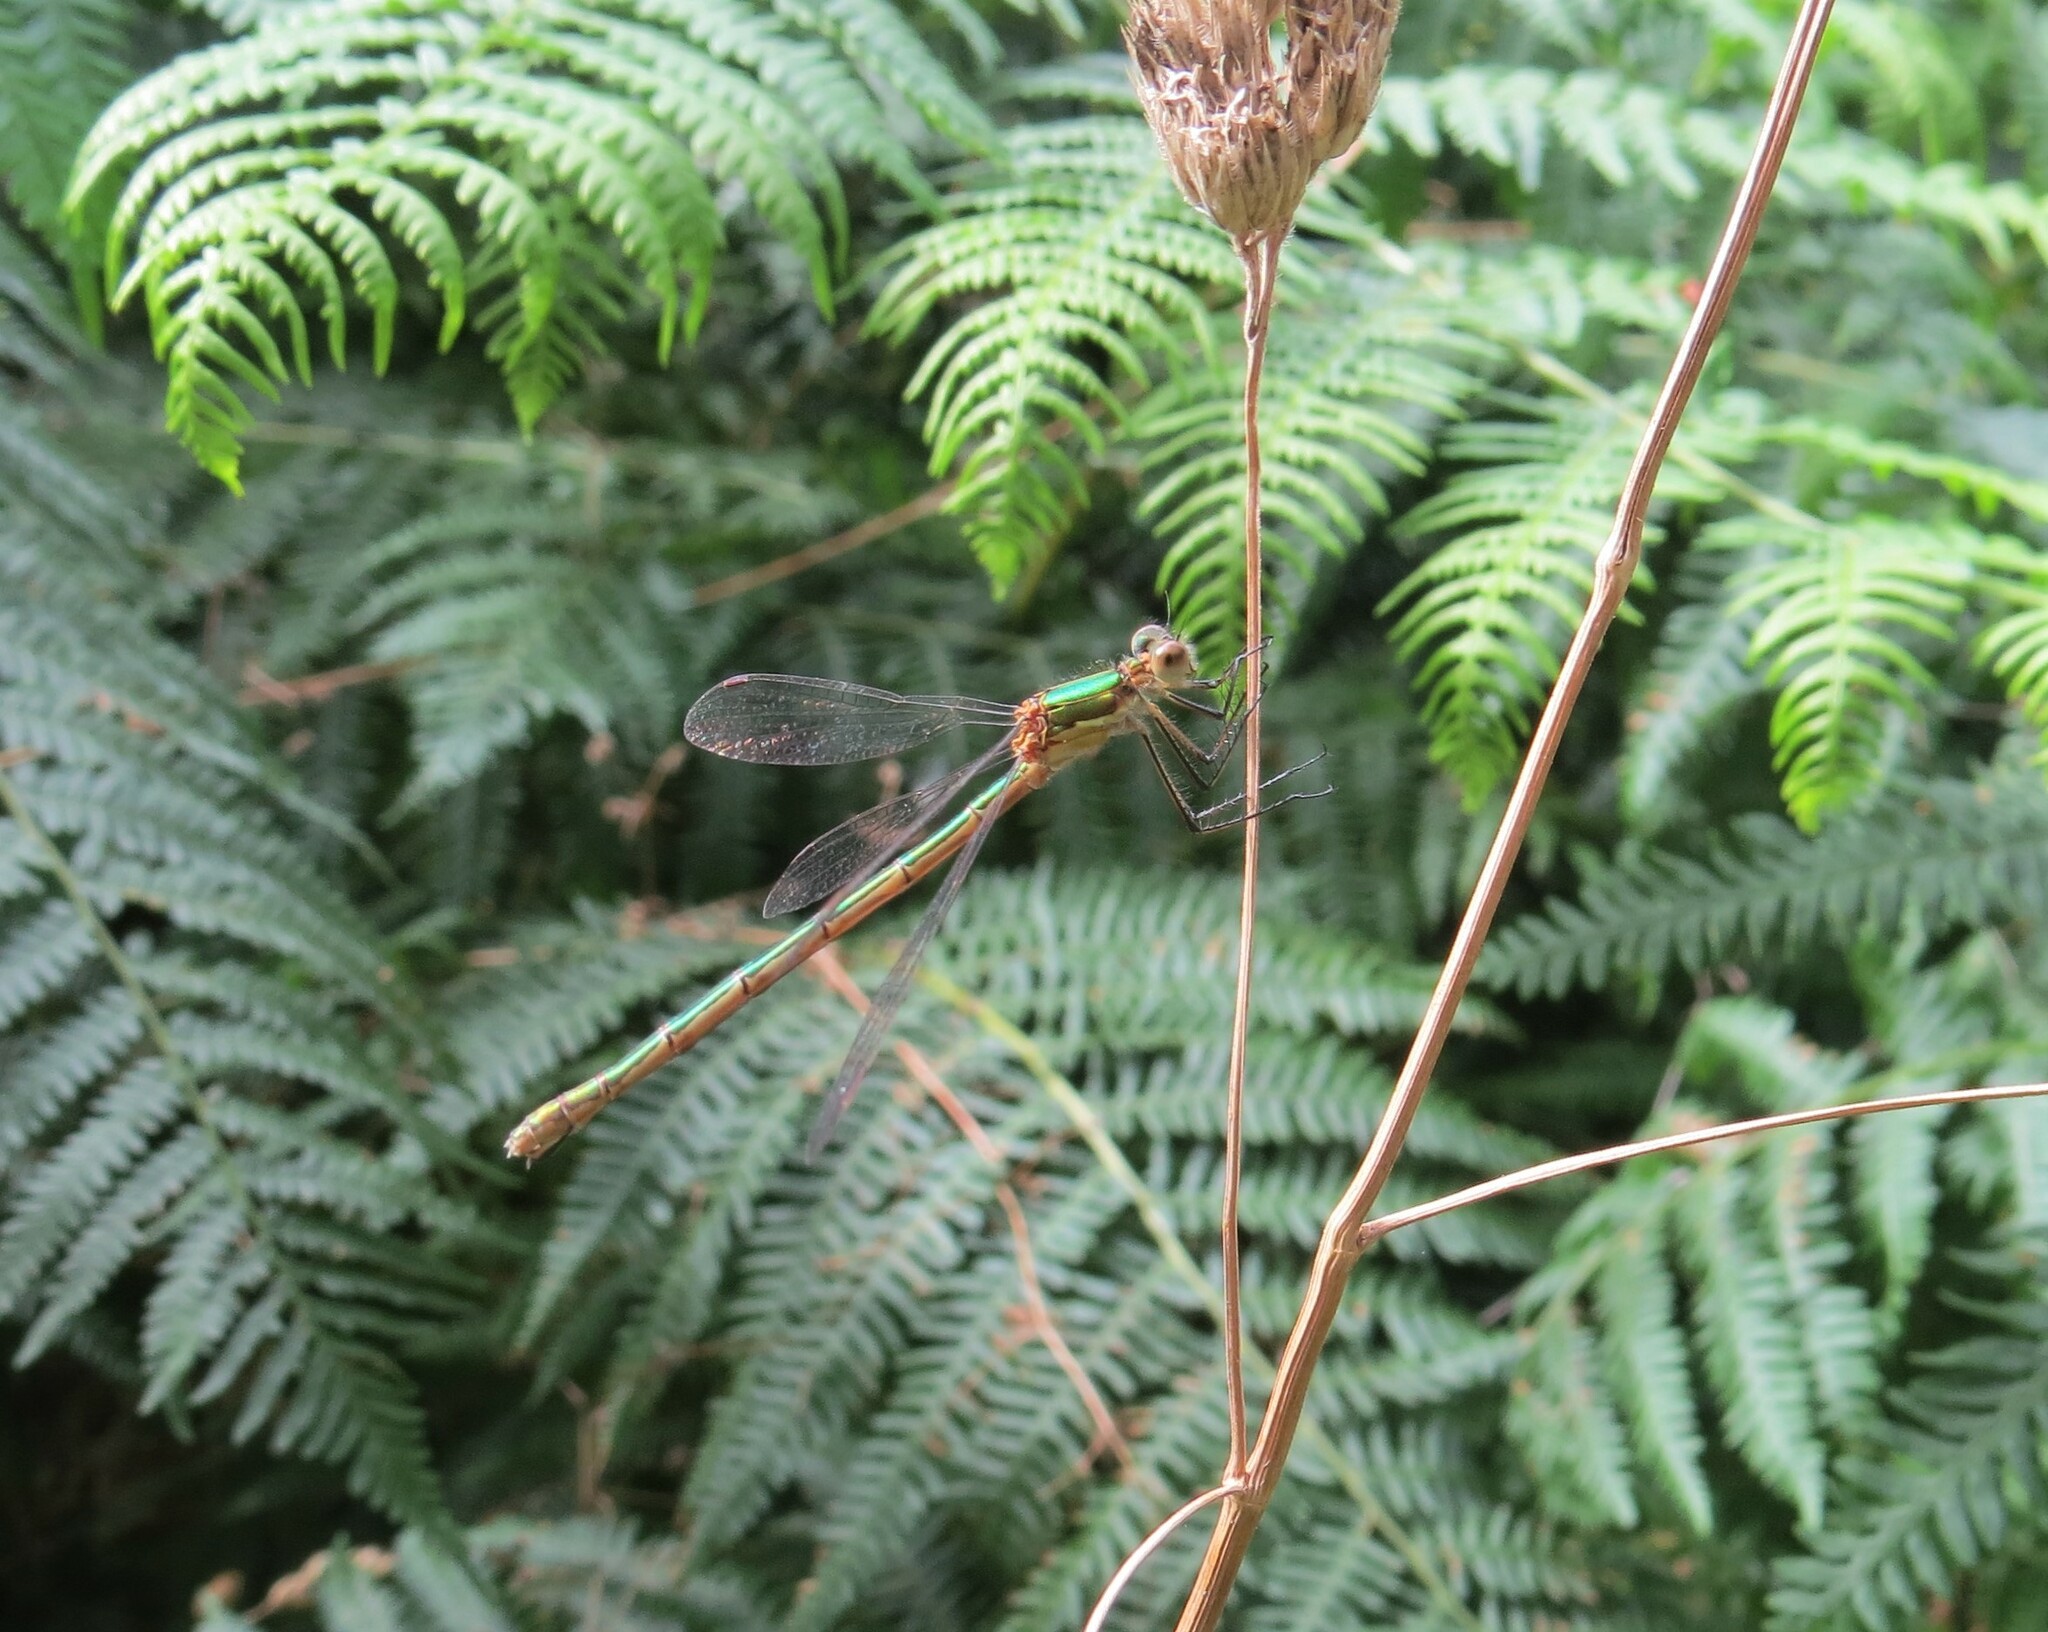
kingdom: Animalia
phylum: Arthropoda
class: Insecta
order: Odonata
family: Lestidae
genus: Lestes
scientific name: Lestes sponsa
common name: Common spreadwing
